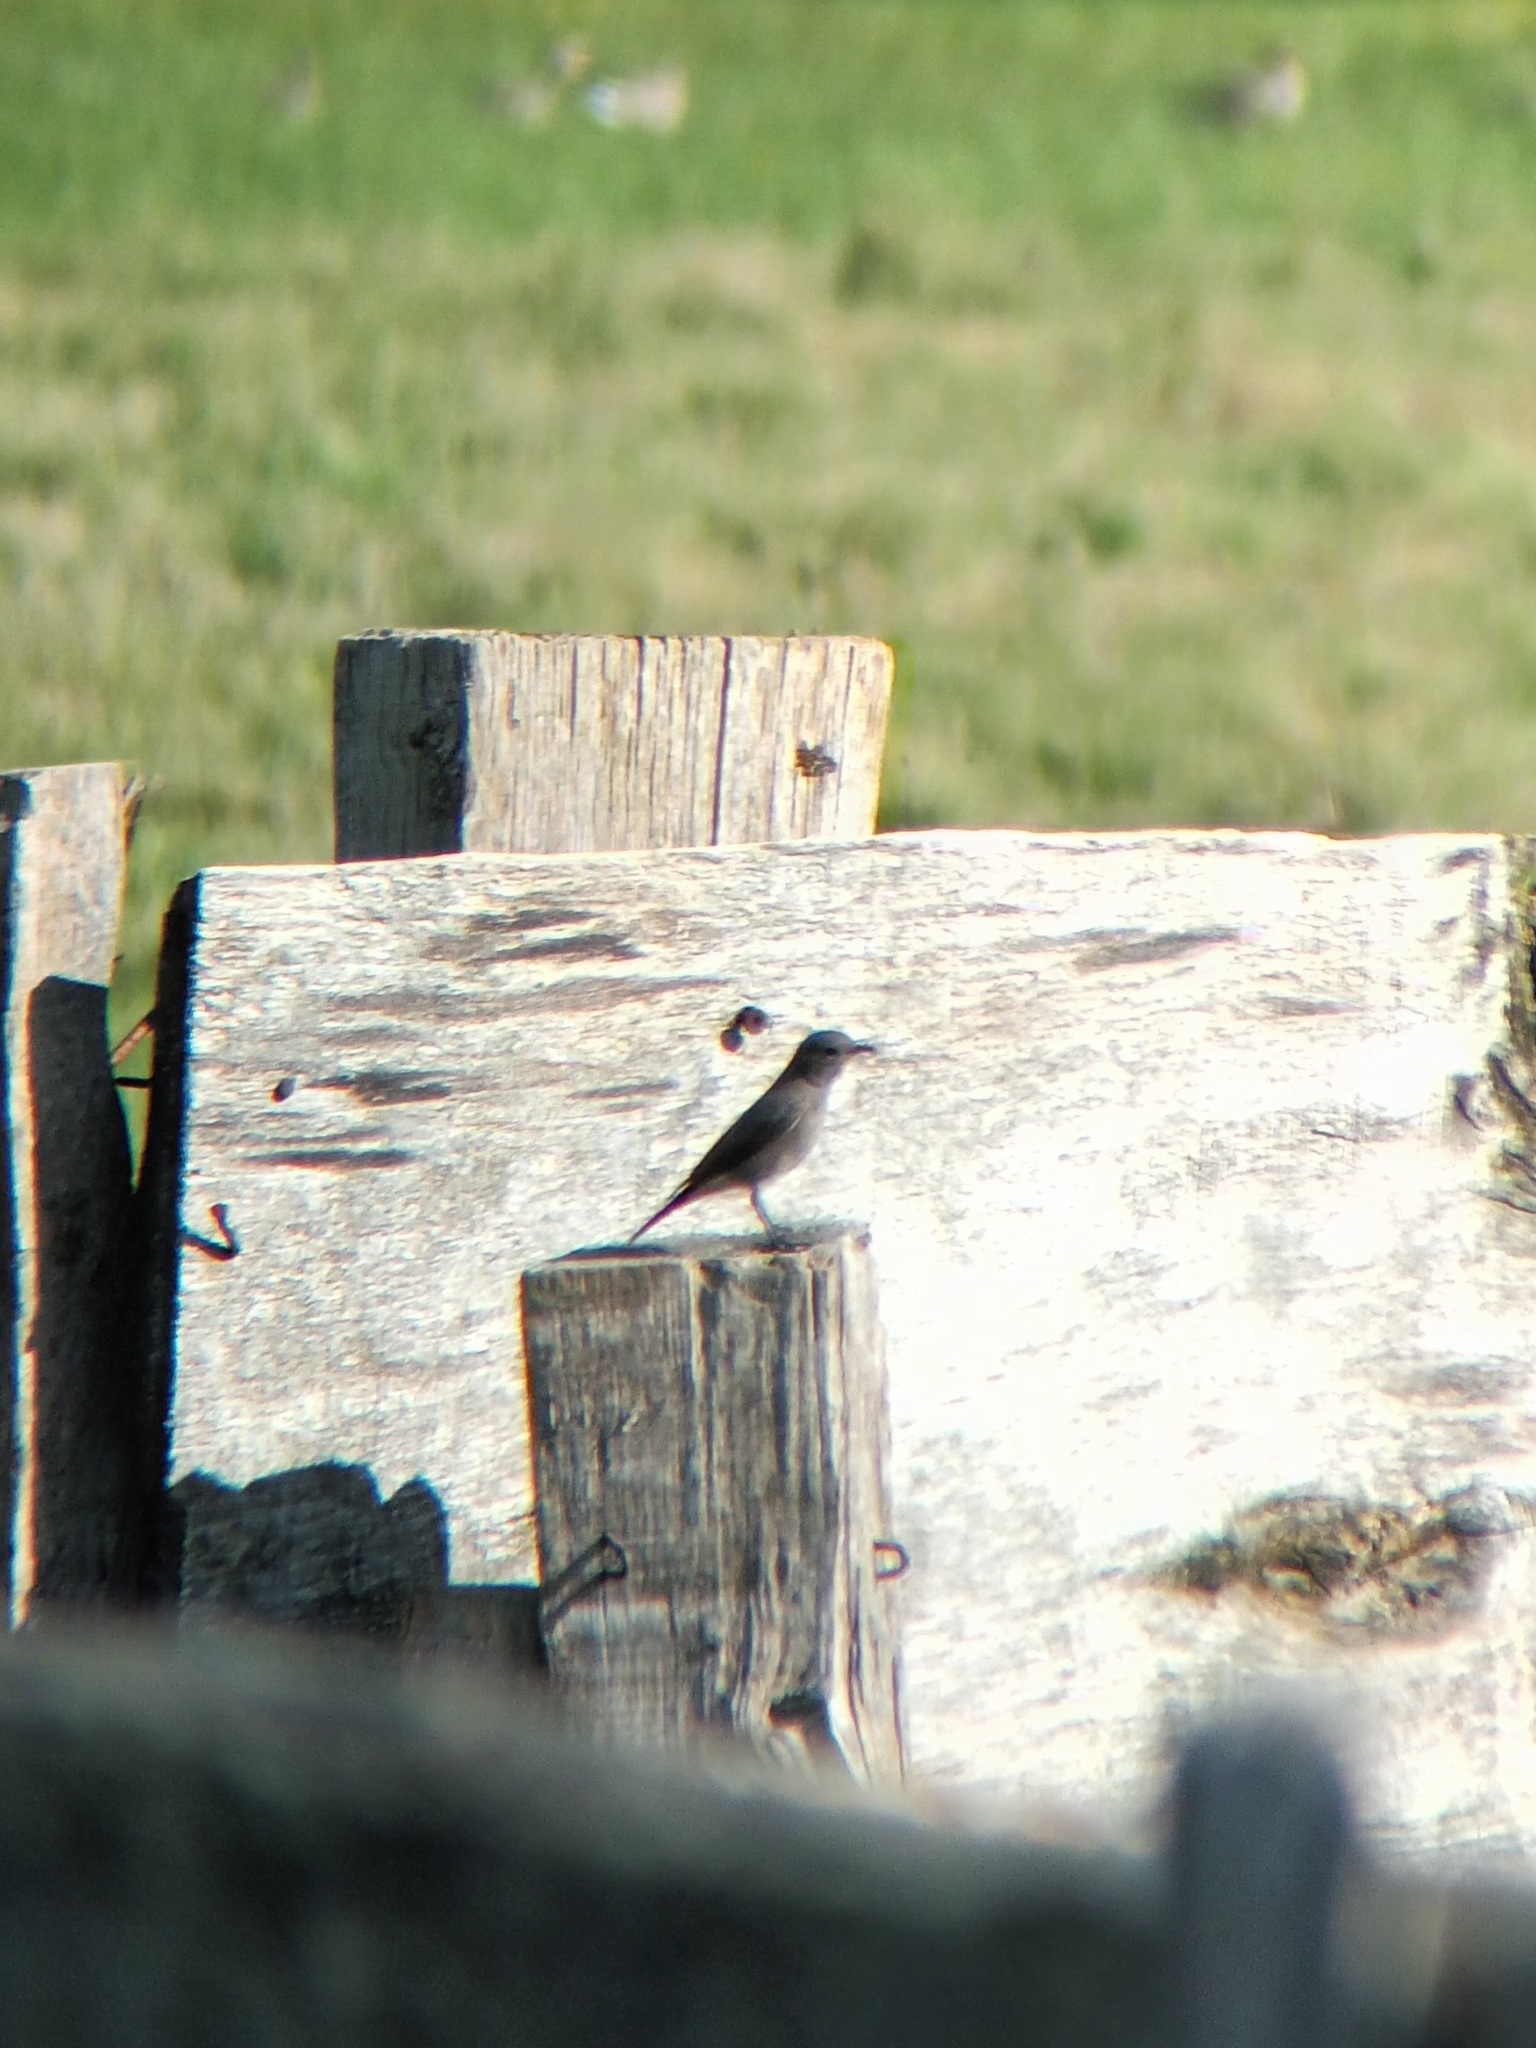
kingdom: Animalia
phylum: Chordata
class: Aves
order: Passeriformes
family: Muscicapidae
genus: Phoenicurus
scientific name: Phoenicurus ochruros
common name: Black redstart
